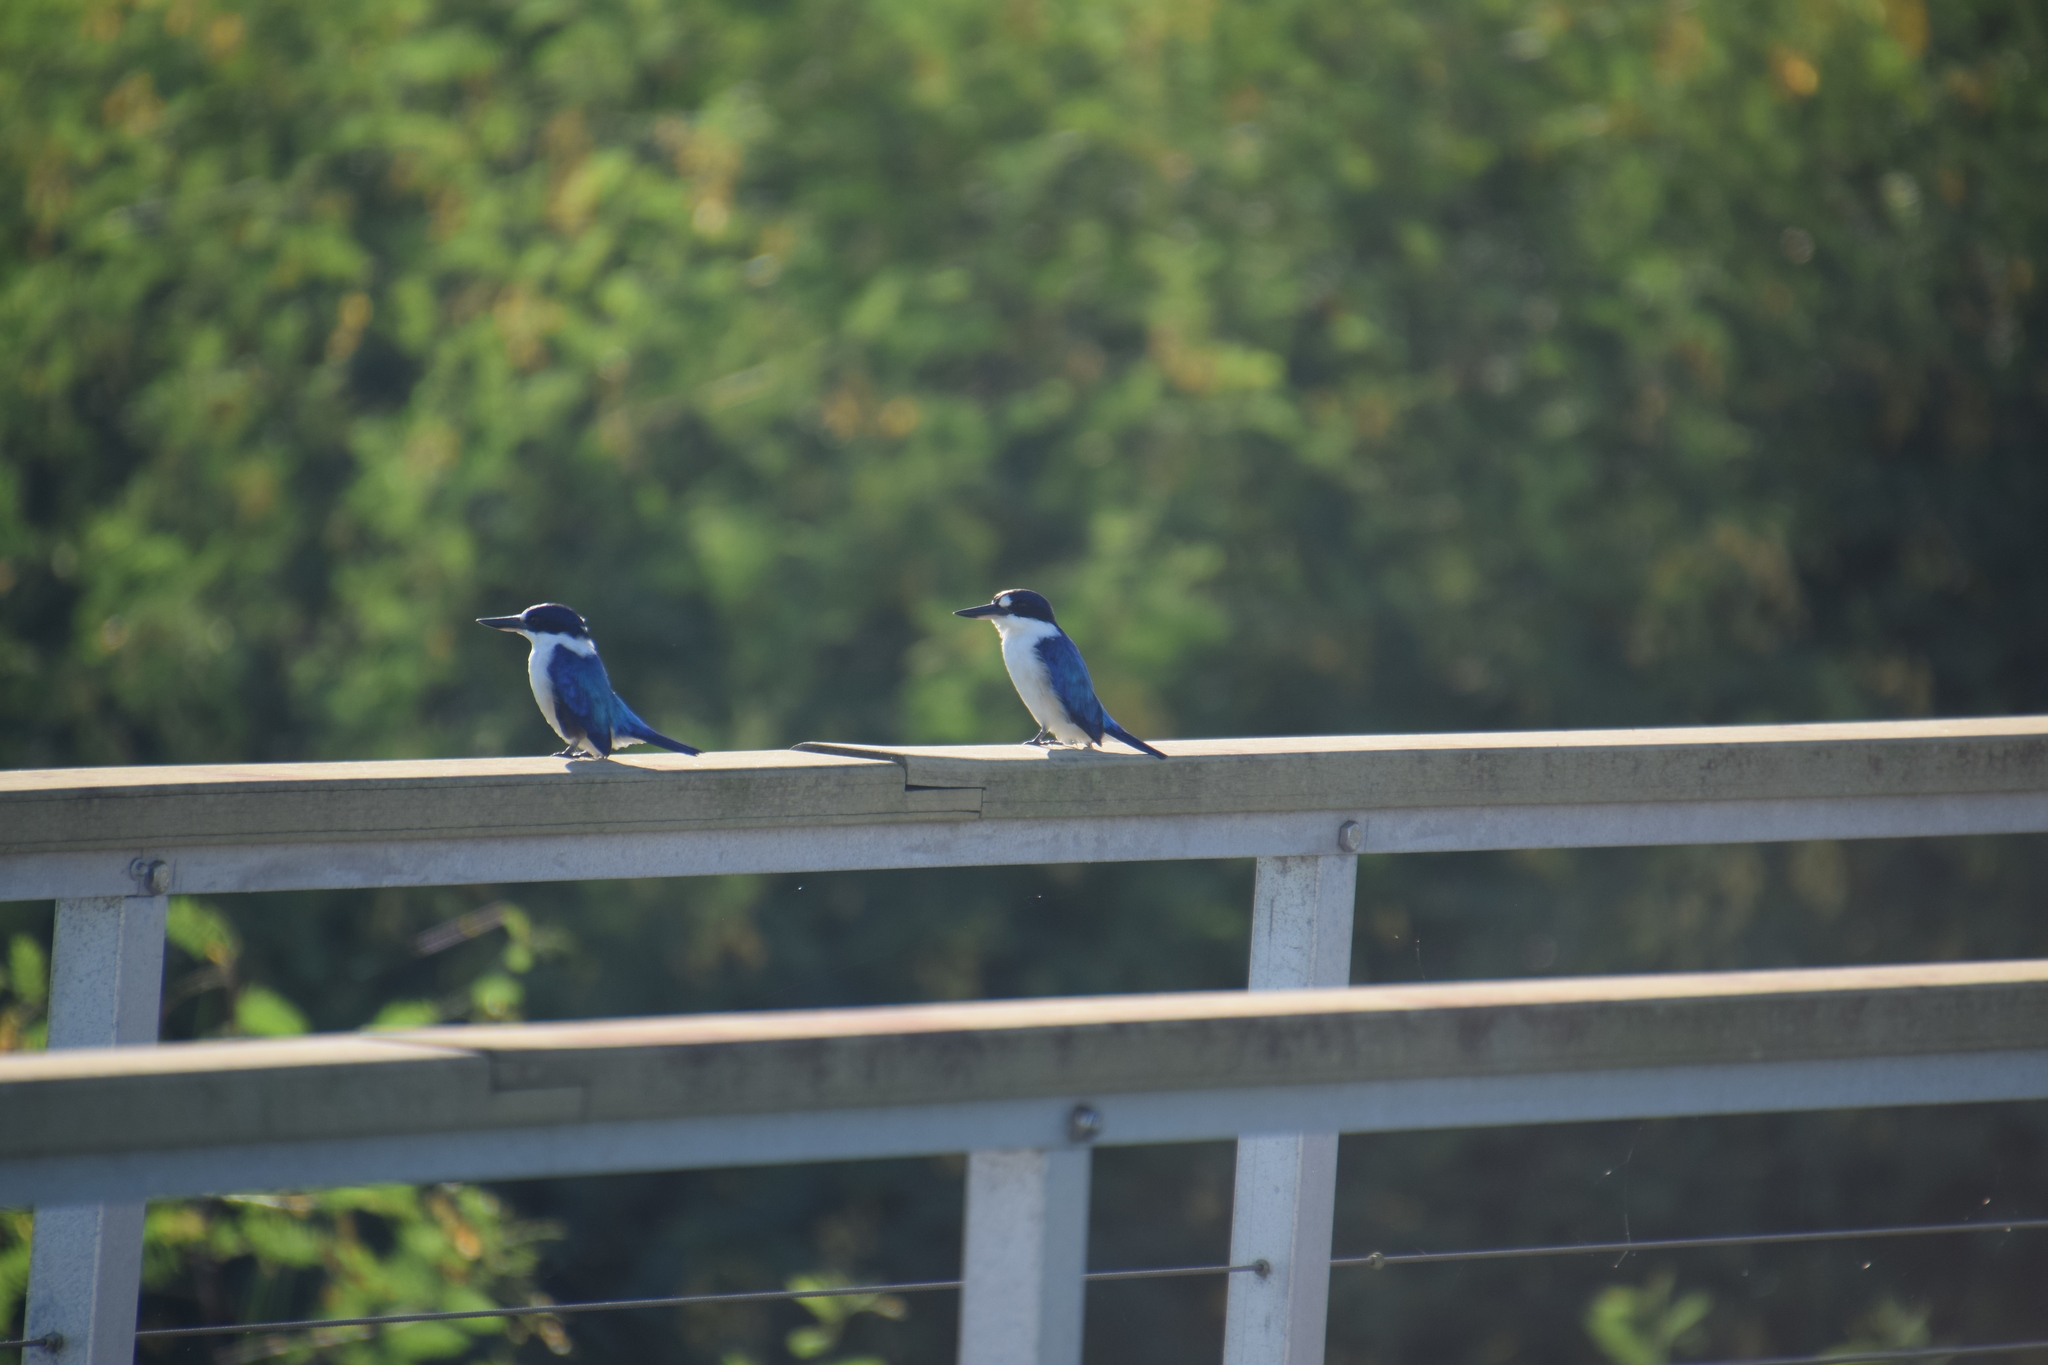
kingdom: Animalia
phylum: Chordata
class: Aves
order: Coraciiformes
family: Alcedinidae
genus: Todiramphus
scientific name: Todiramphus macleayii
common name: Forest kingfisher
